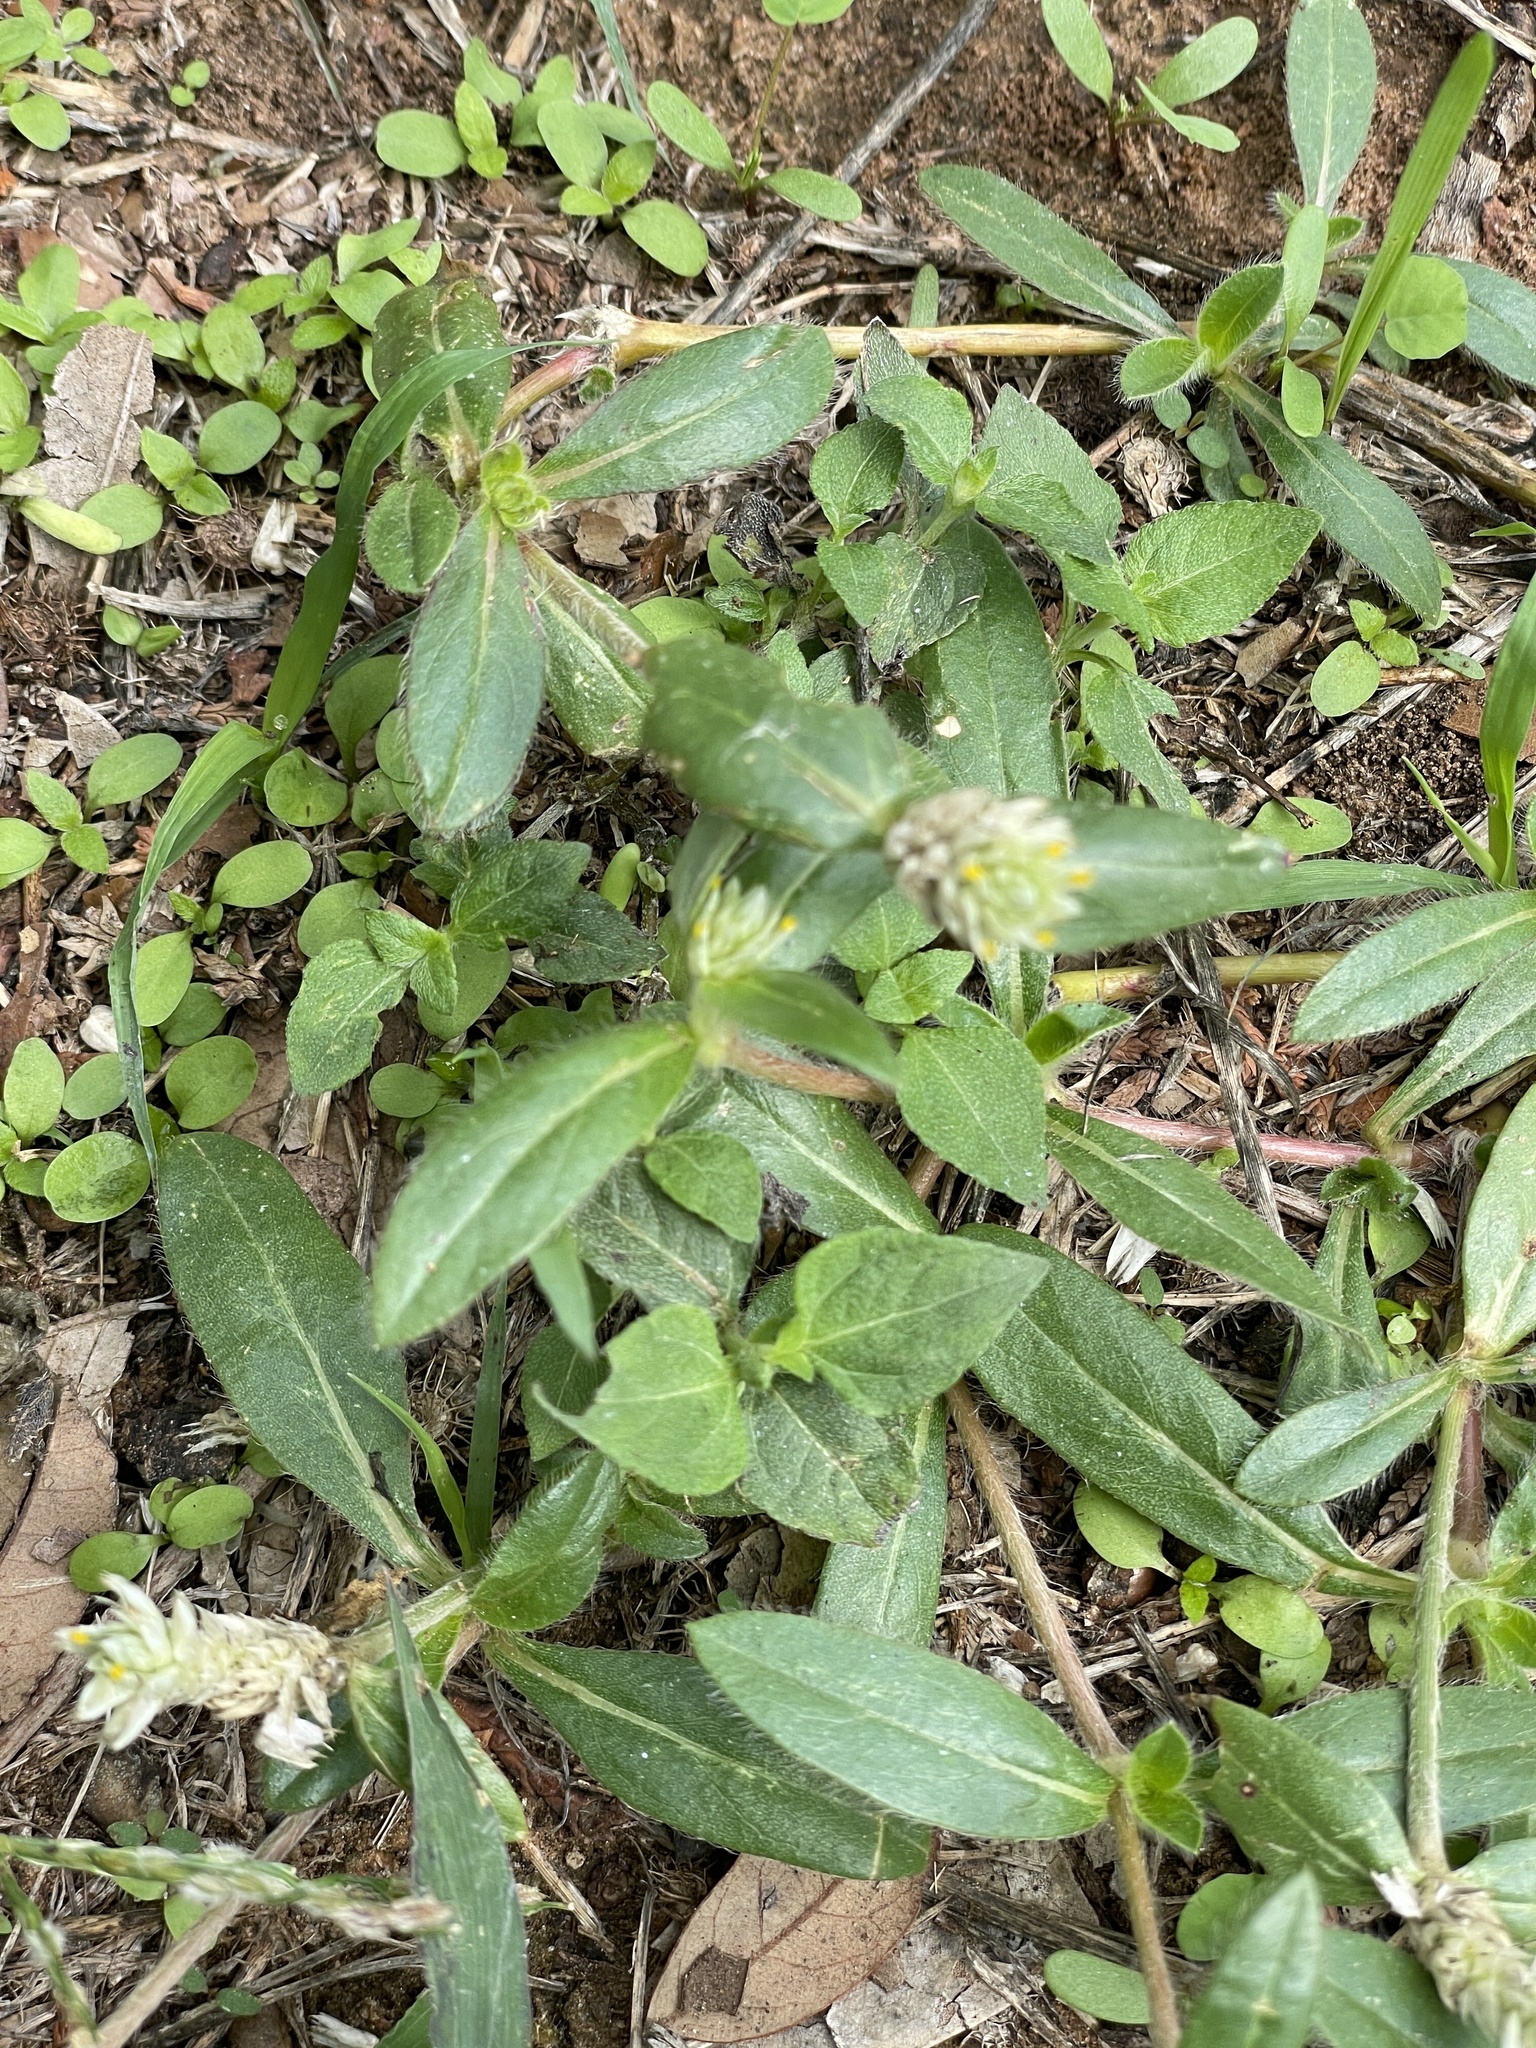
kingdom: Plantae
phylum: Tracheophyta
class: Magnoliopsida
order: Caryophyllales
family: Amaranthaceae
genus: Gomphrena
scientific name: Gomphrena serrata
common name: Arrasa con todo
